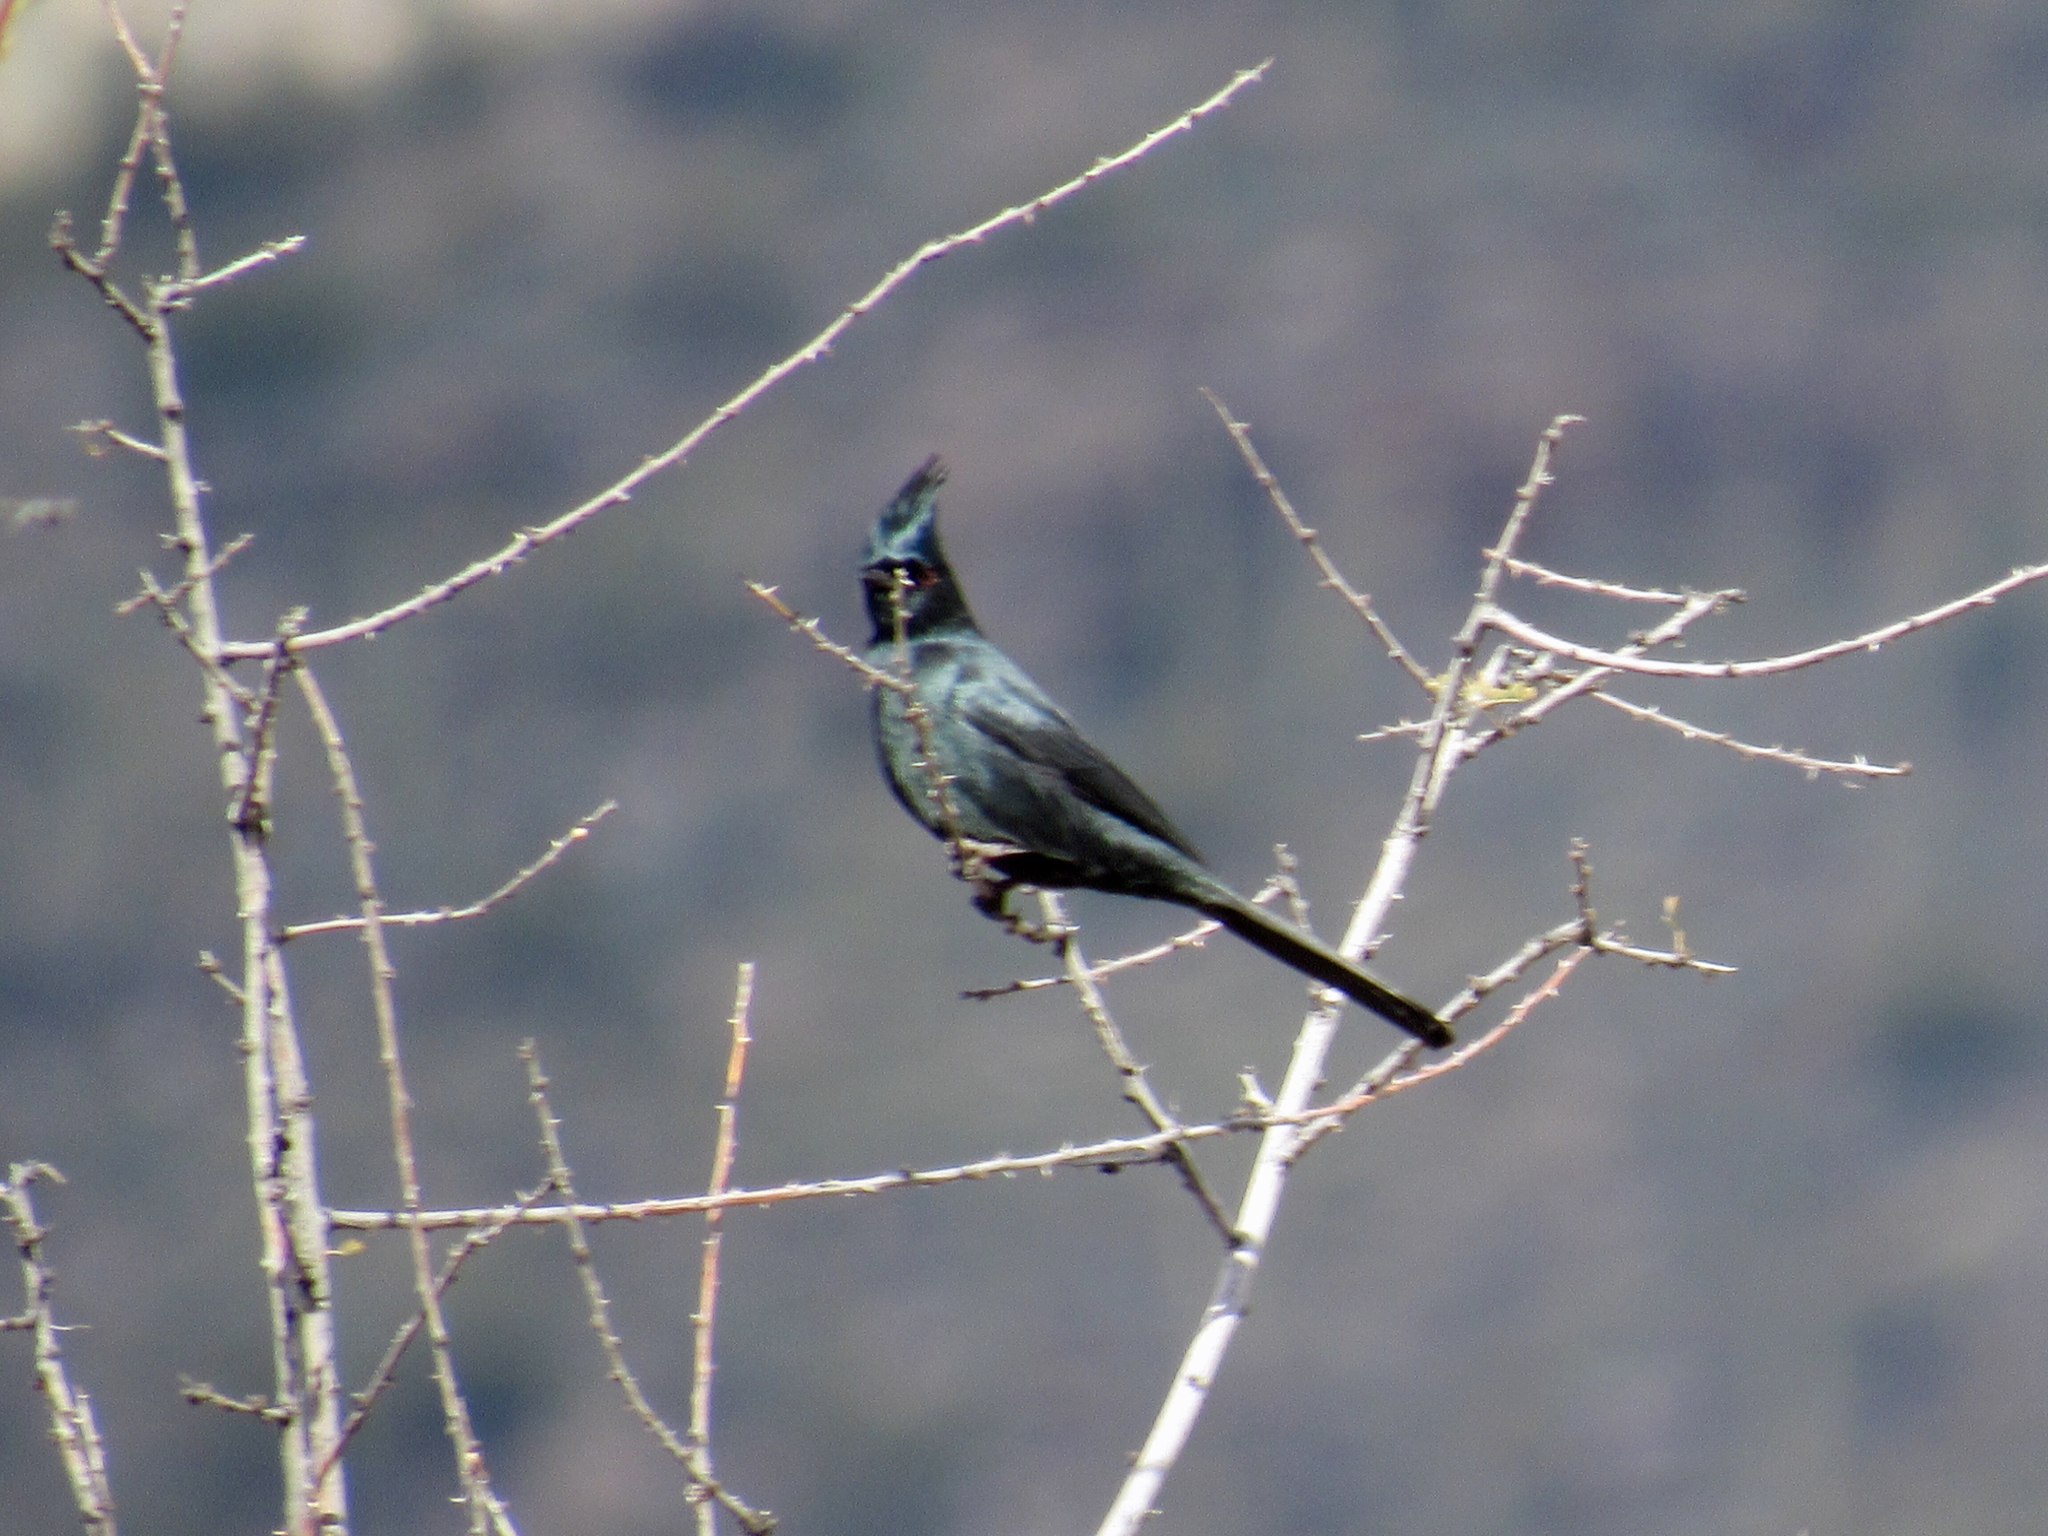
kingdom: Animalia
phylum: Chordata
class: Aves
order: Passeriformes
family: Ptilogonatidae
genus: Phainopepla
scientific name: Phainopepla nitens
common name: Phainopepla
